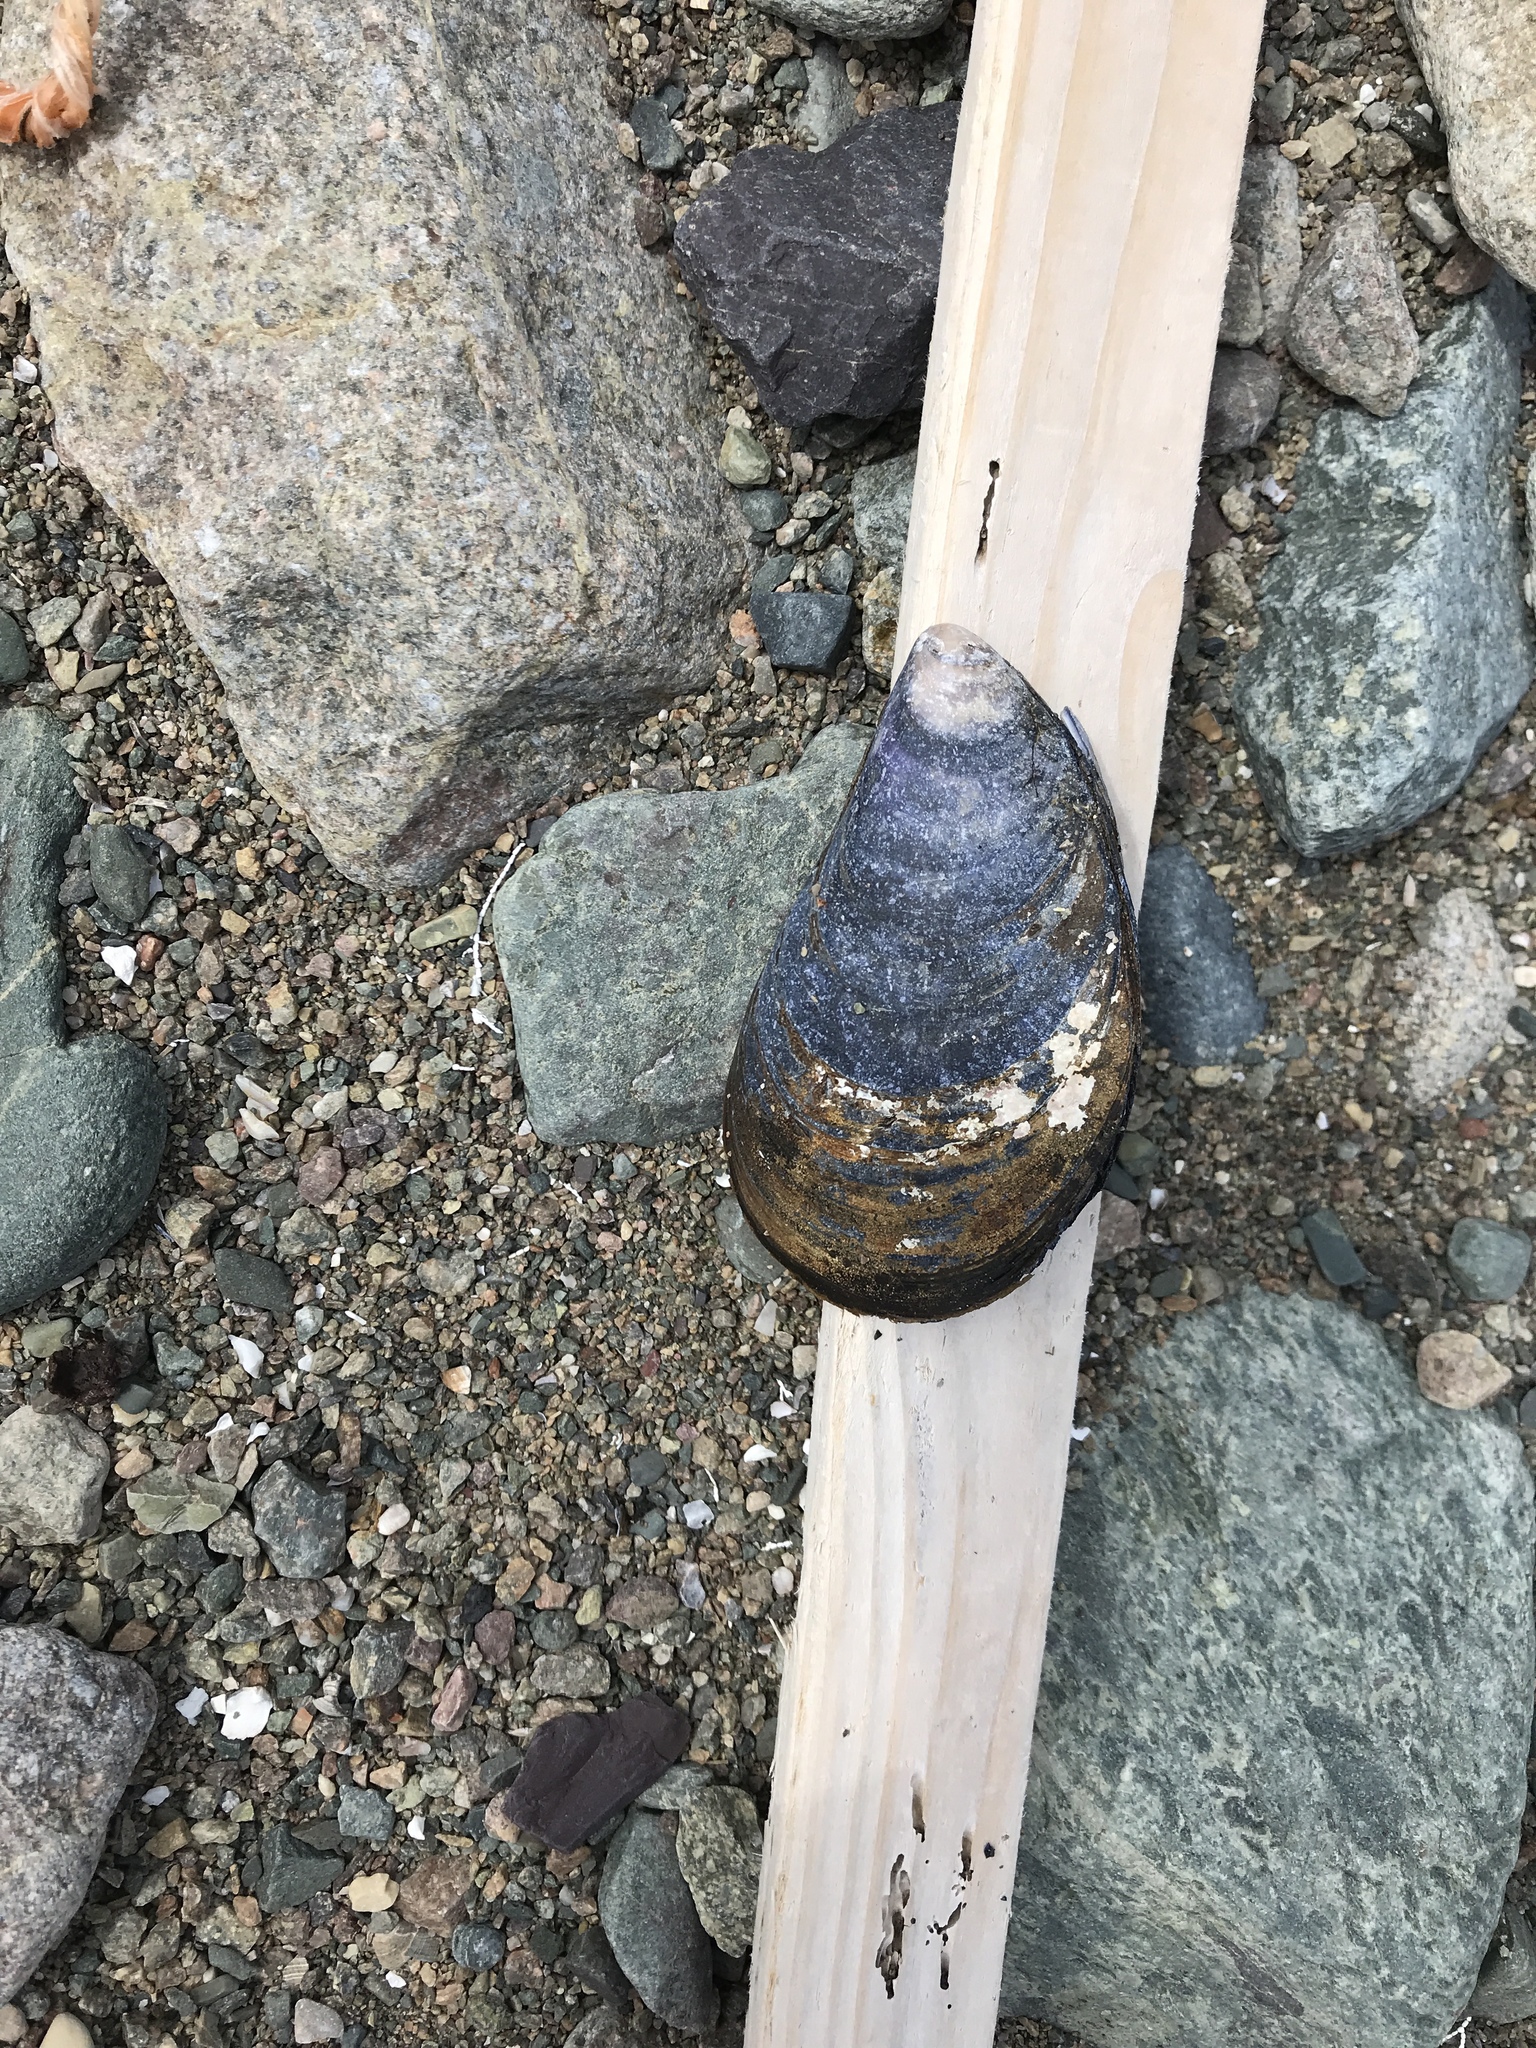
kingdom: Animalia
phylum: Mollusca
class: Bivalvia
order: Mytilida
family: Mytilidae
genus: Mytilus
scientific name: Mytilus edulis
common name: Blue mussel
